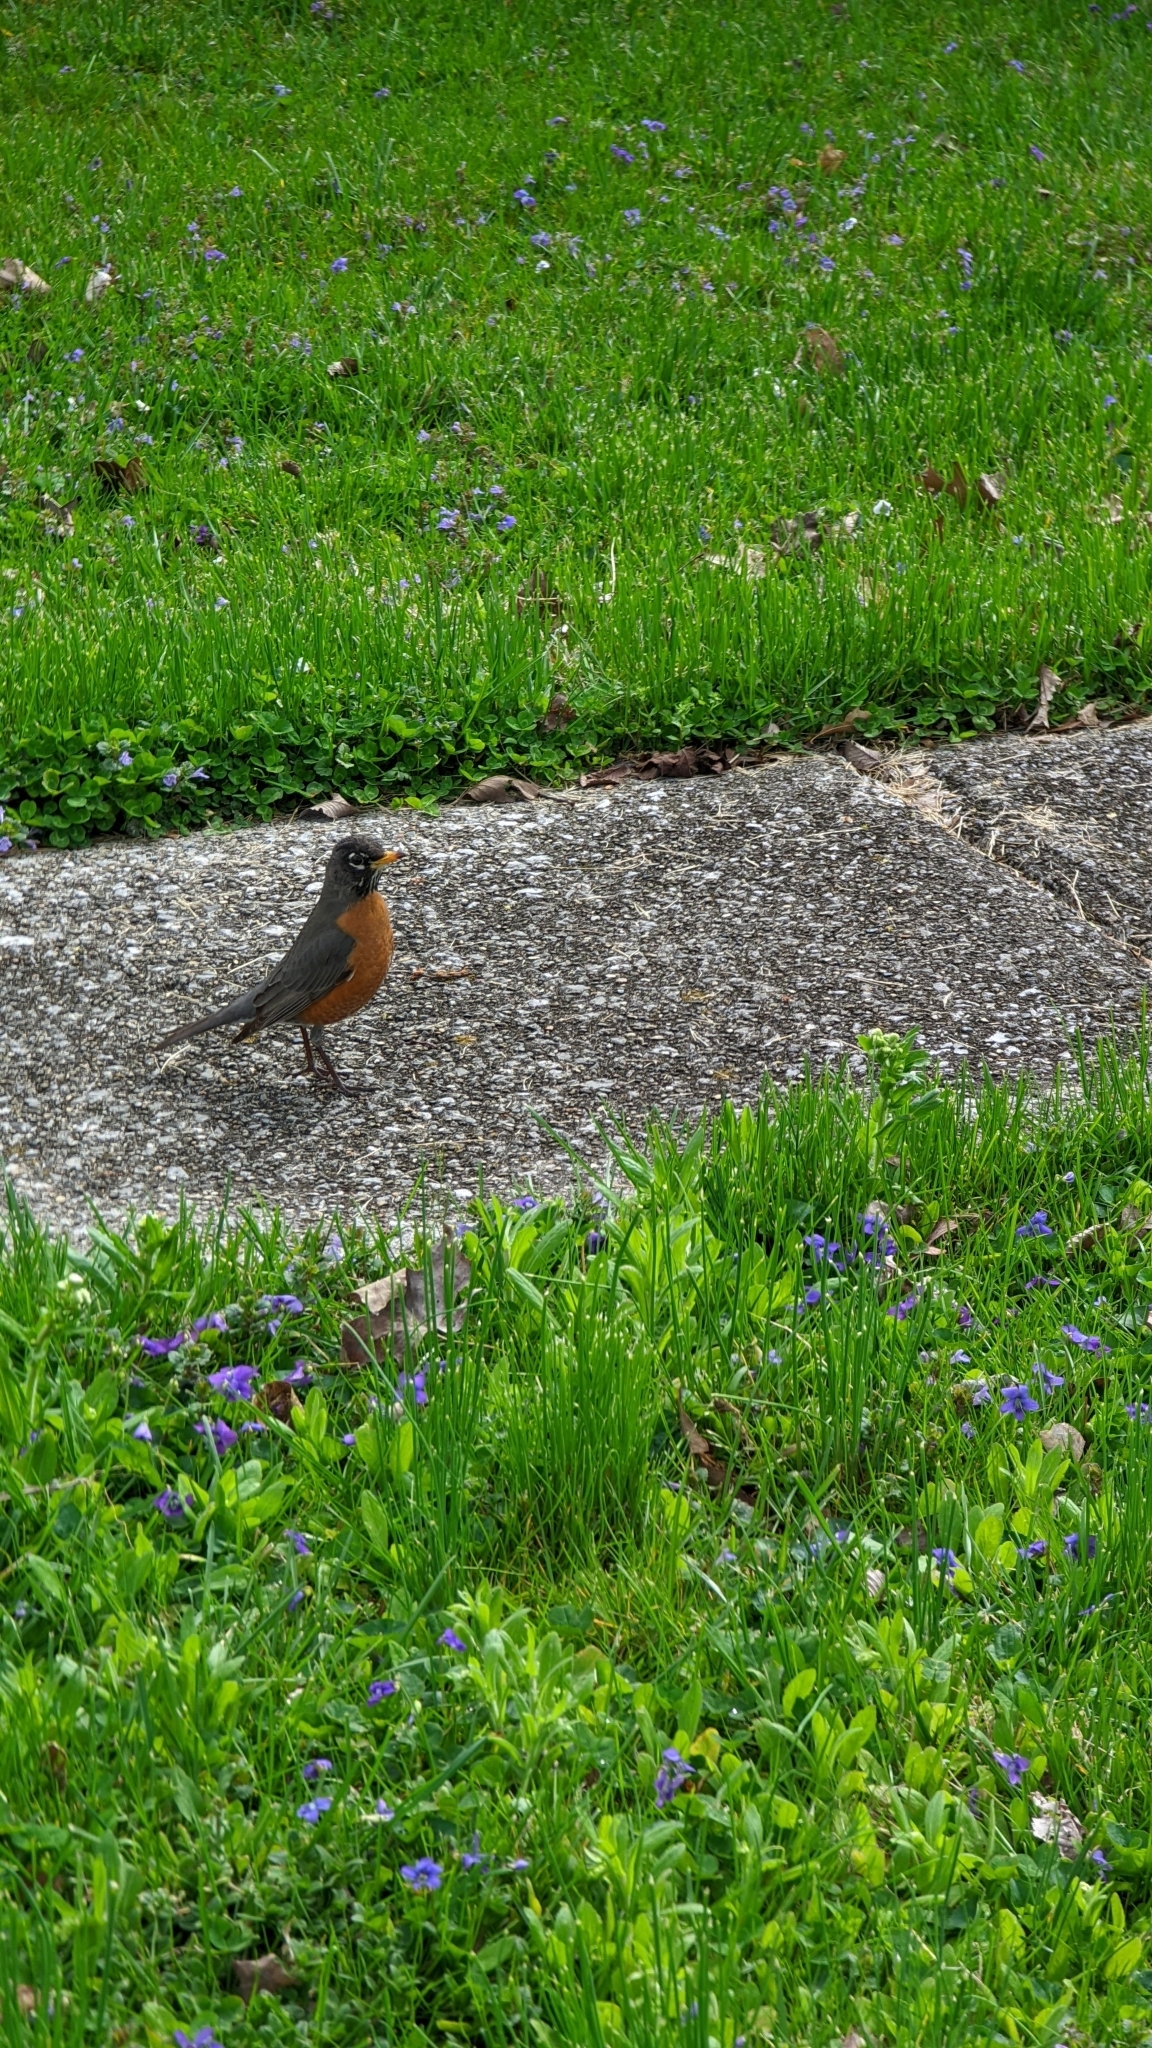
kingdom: Animalia
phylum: Chordata
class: Aves
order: Passeriformes
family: Turdidae
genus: Turdus
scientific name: Turdus migratorius
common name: American robin
